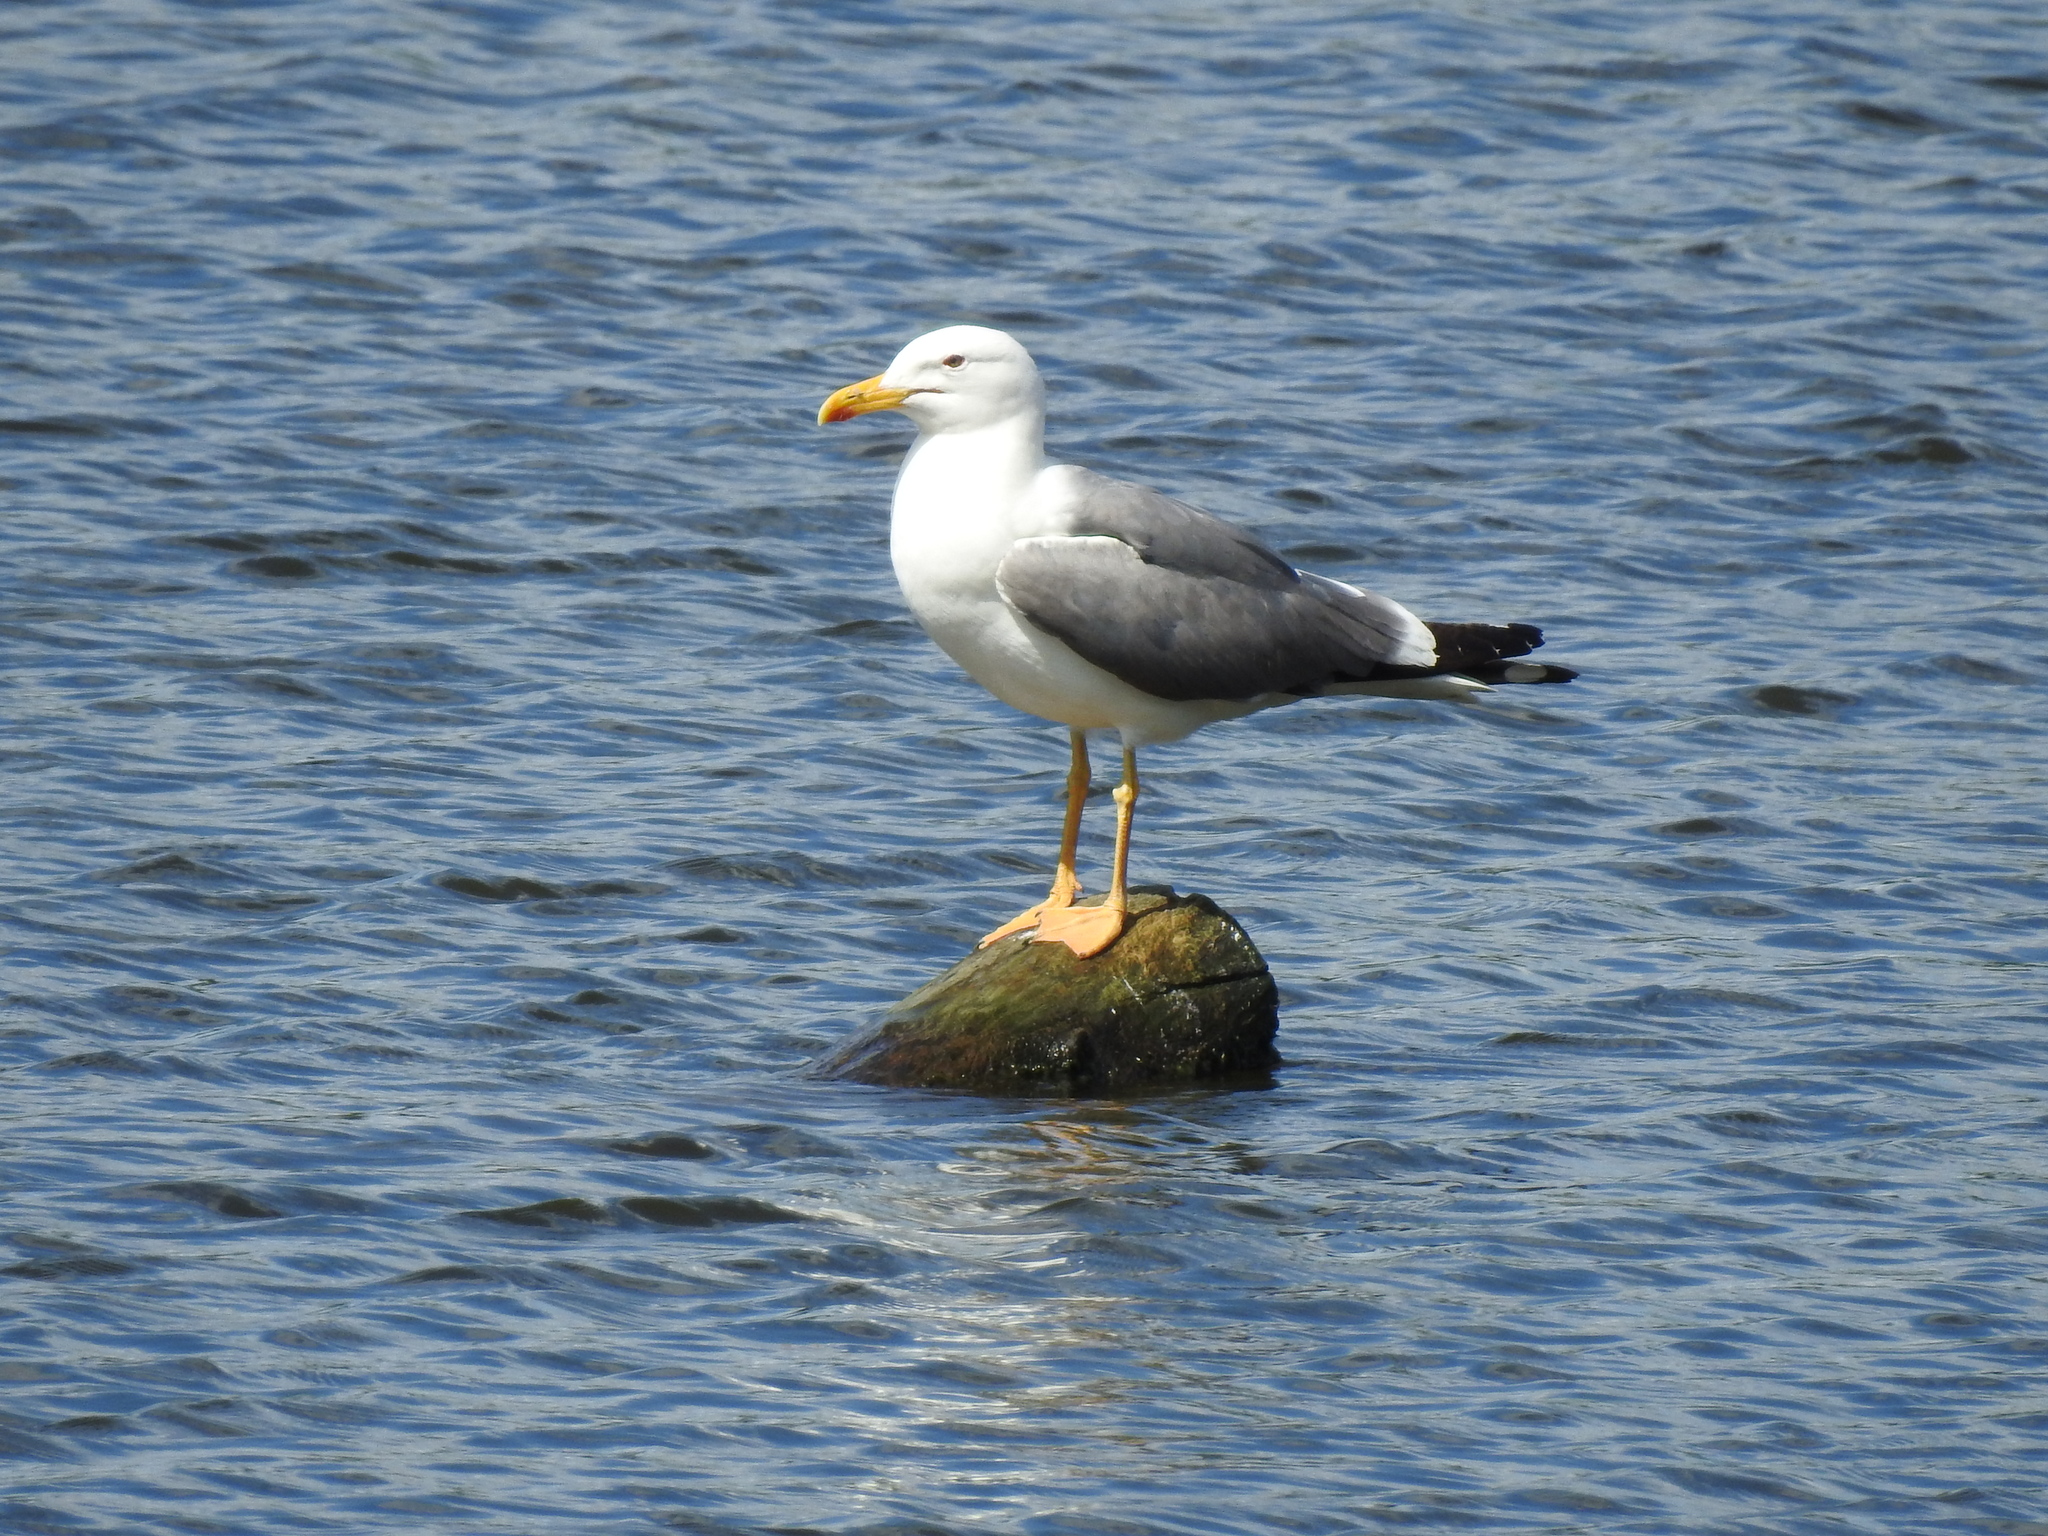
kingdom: Animalia
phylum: Chordata
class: Aves
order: Charadriiformes
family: Laridae
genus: Larus
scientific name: Larus fuscus
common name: Lesser black-backed gull
